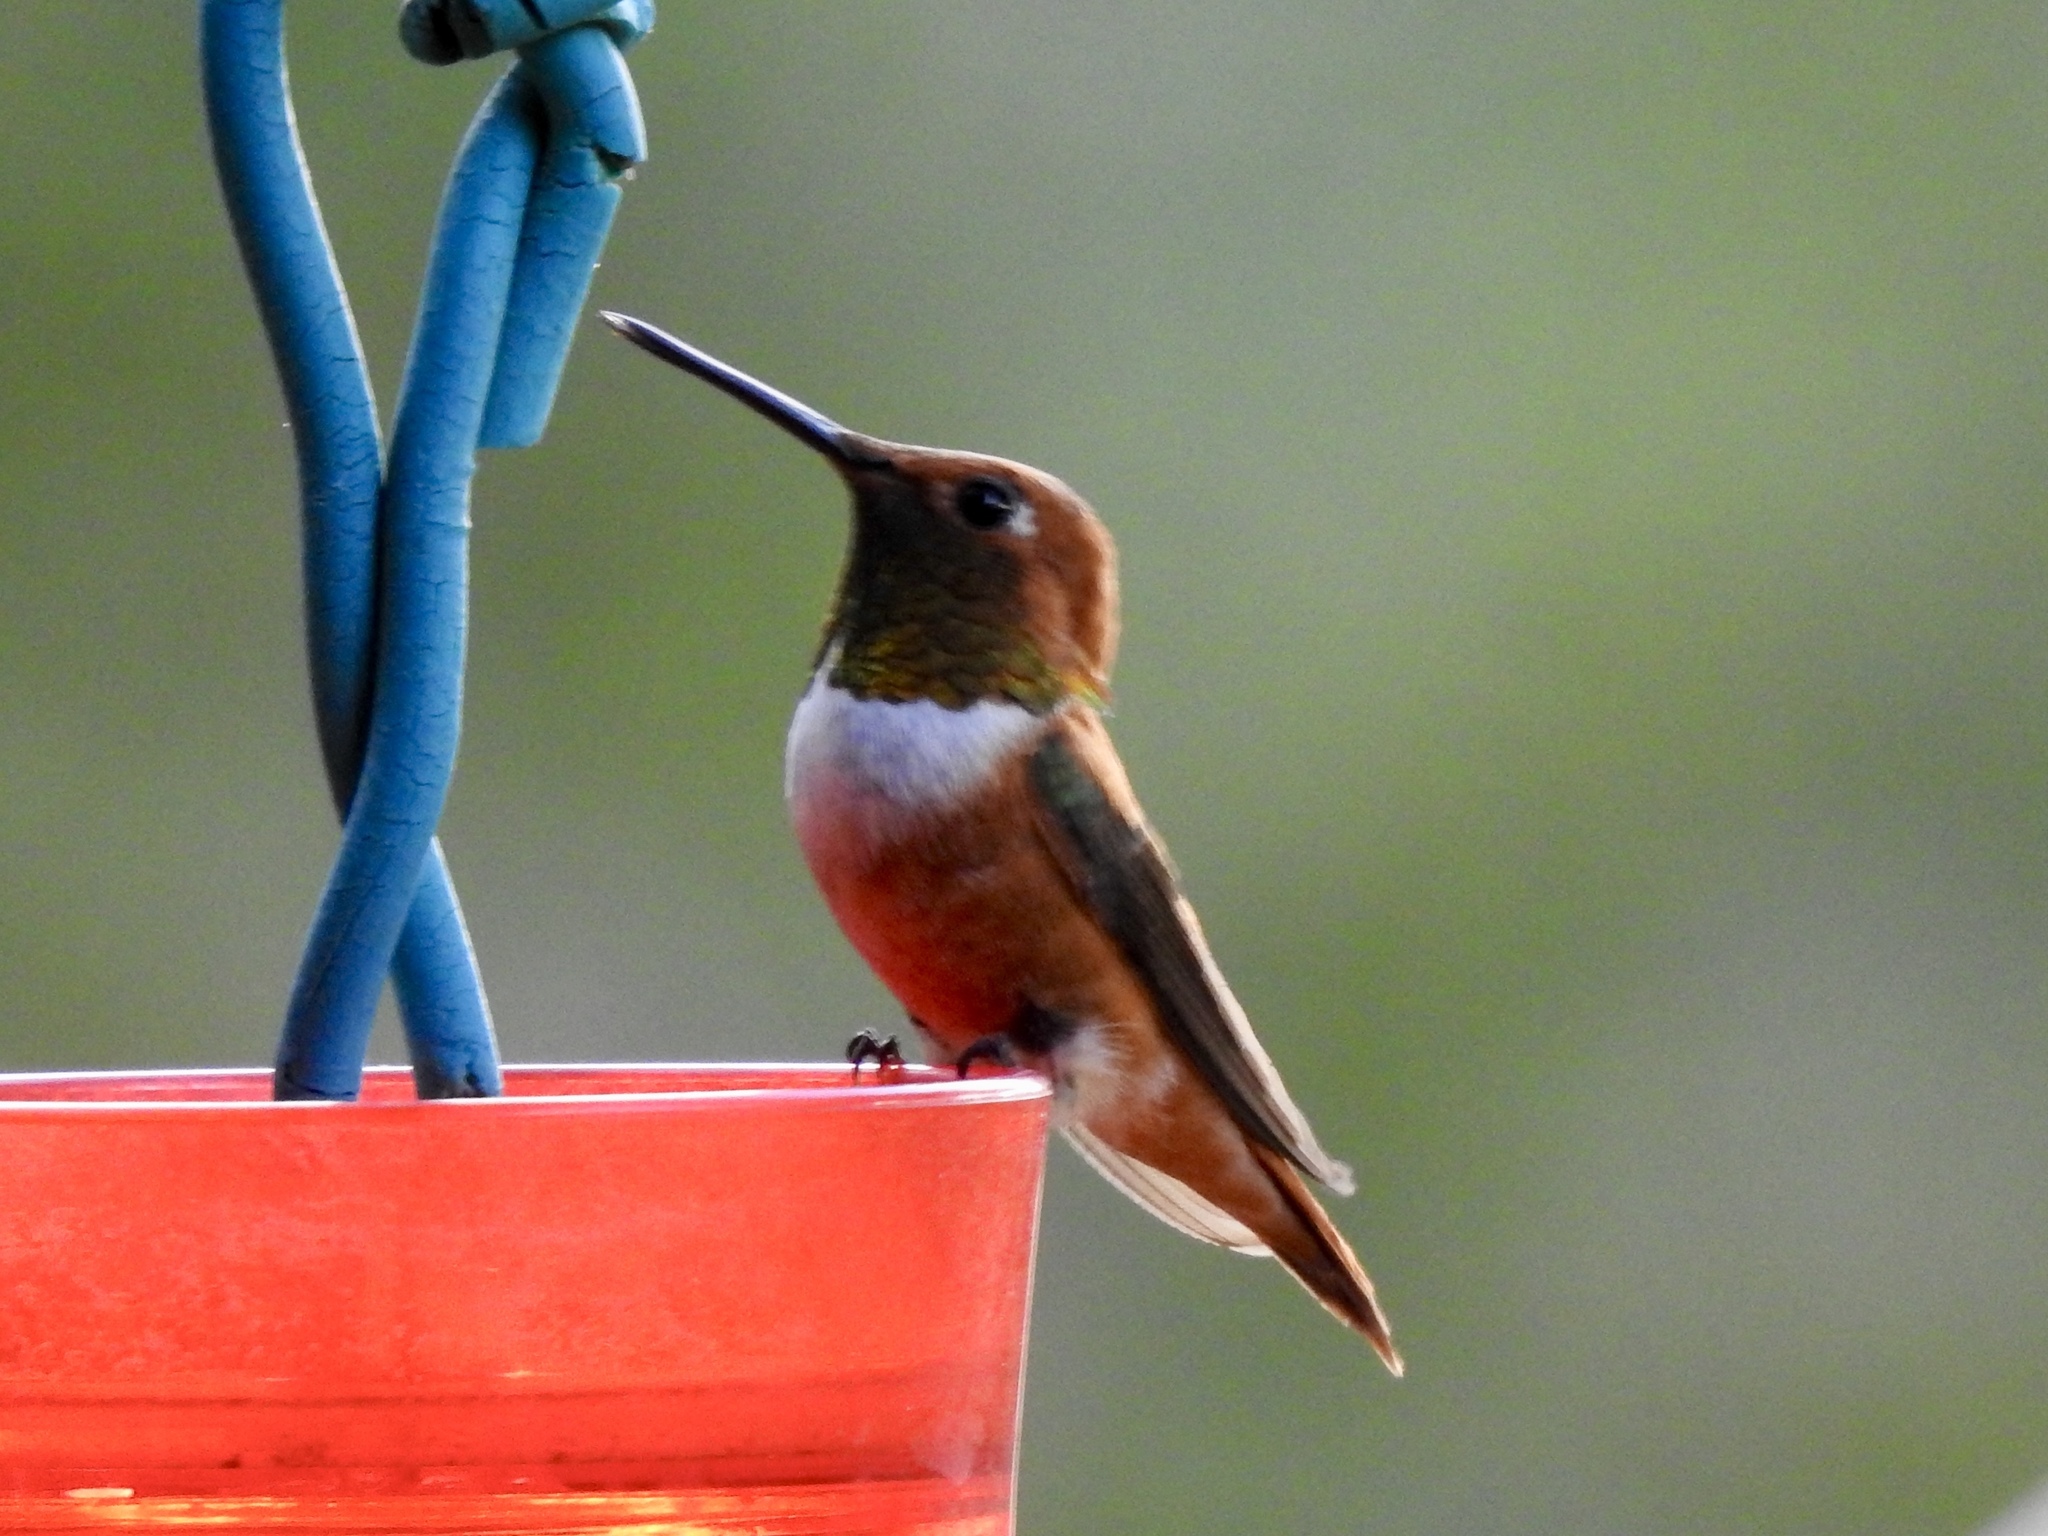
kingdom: Animalia
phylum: Chordata
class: Aves
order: Apodiformes
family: Trochilidae
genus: Selasphorus
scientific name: Selasphorus rufus
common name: Rufous hummingbird
